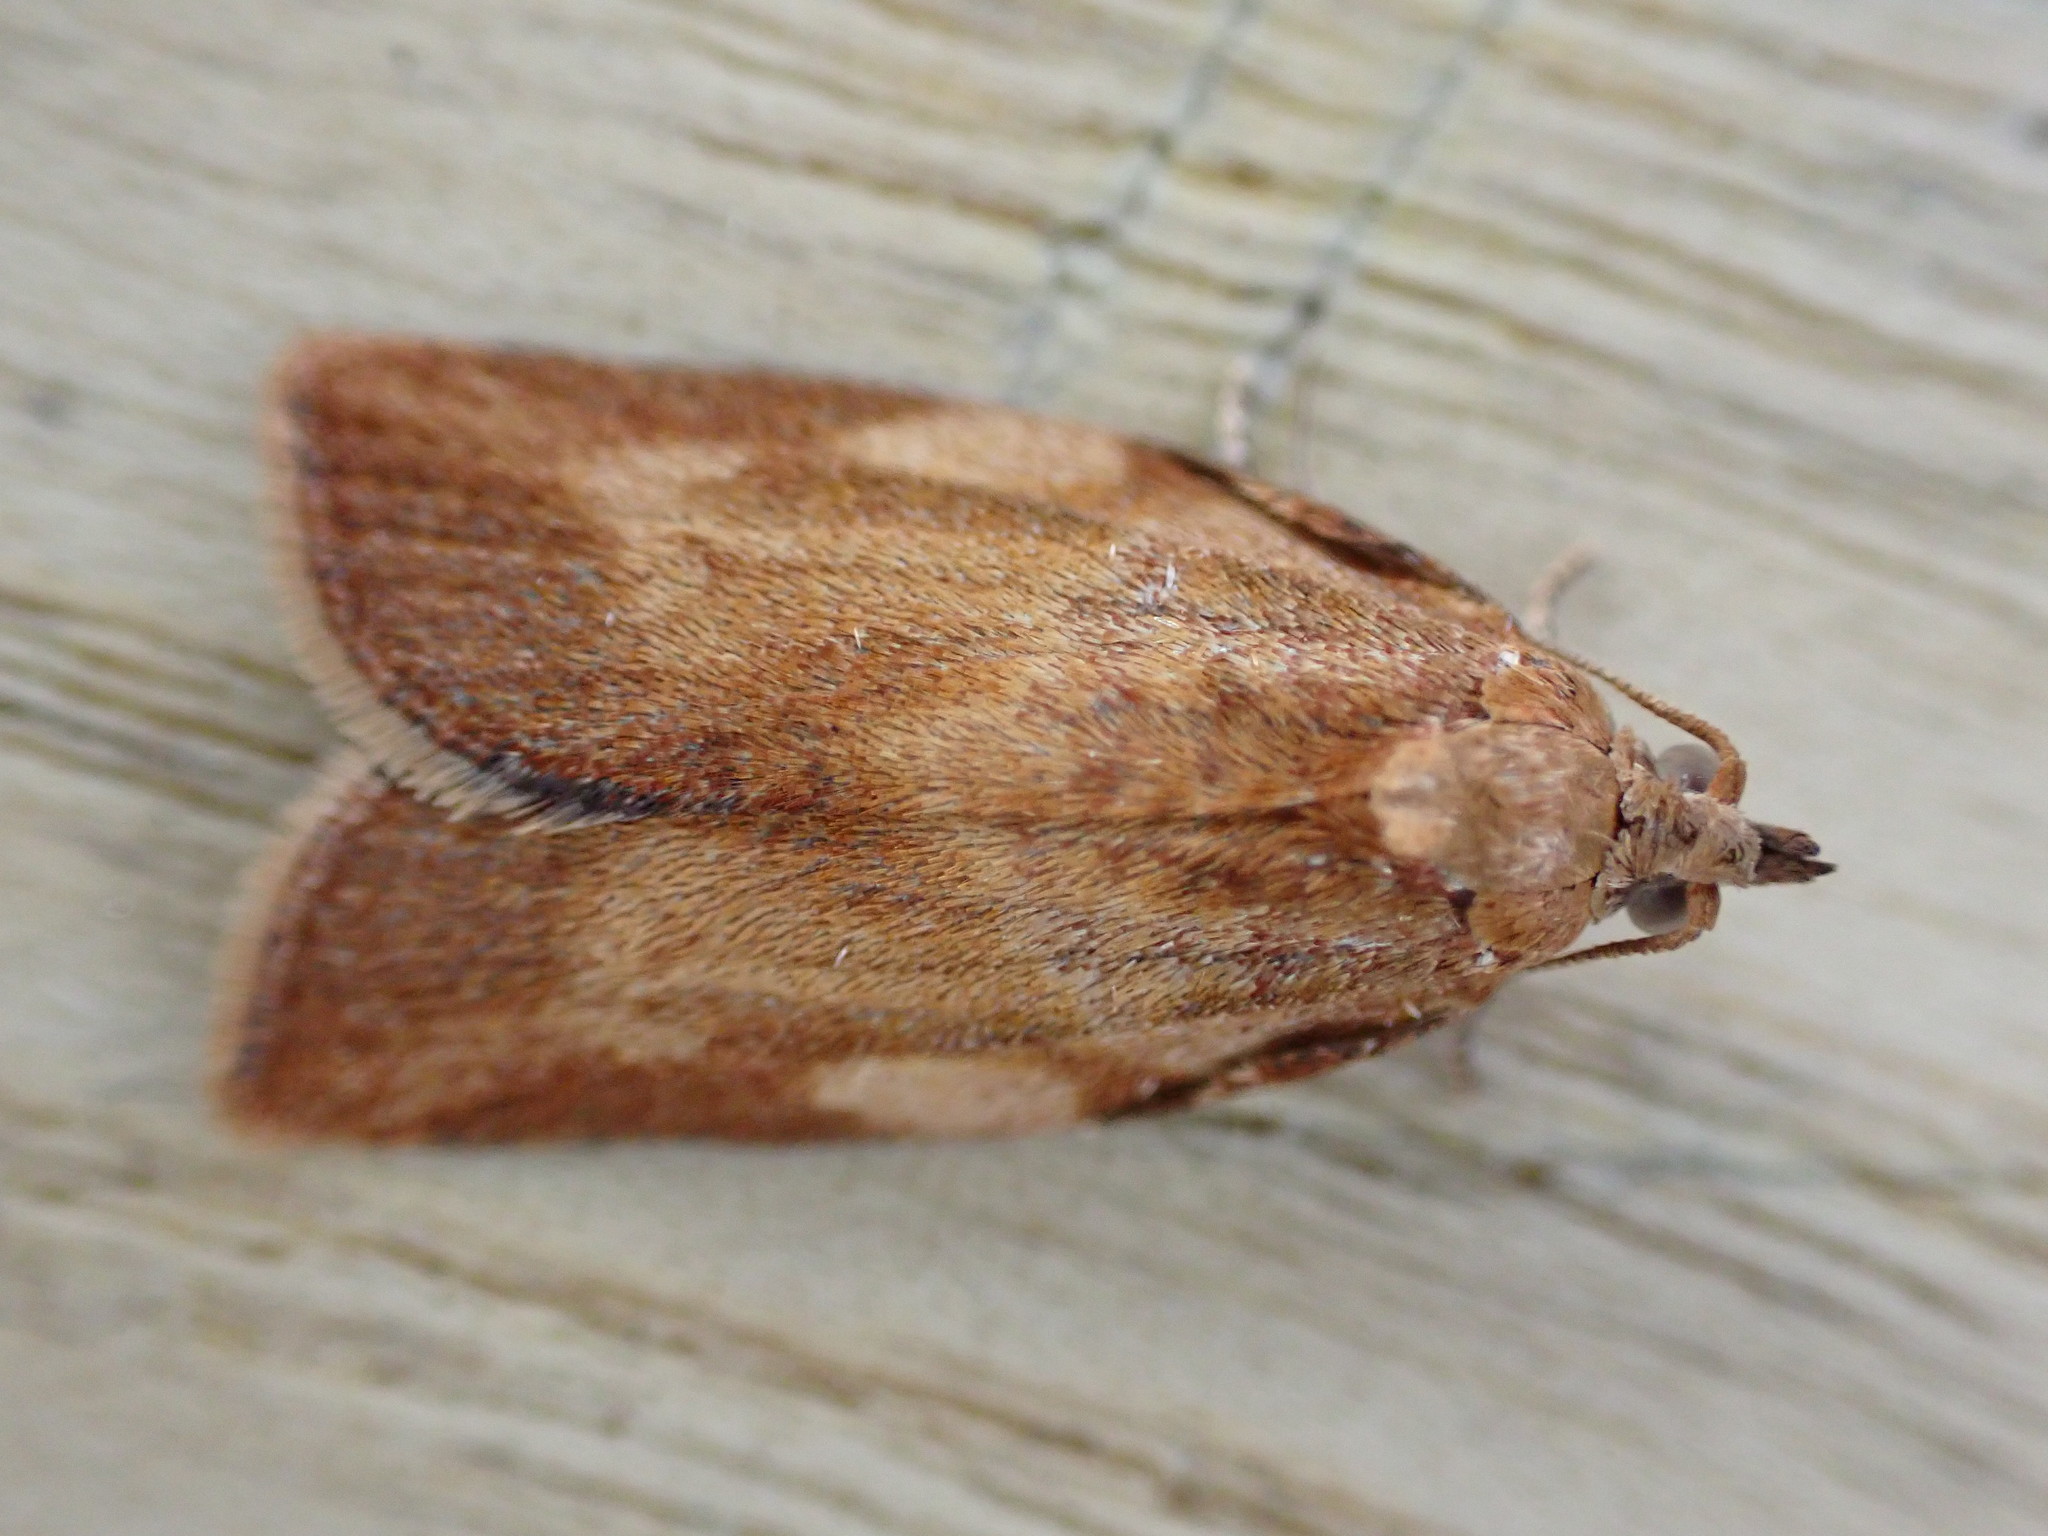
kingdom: Animalia
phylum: Arthropoda
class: Insecta
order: Lepidoptera
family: Tortricidae
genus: Epiphyas
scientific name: Epiphyas postvittana
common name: Light brown apple moth
